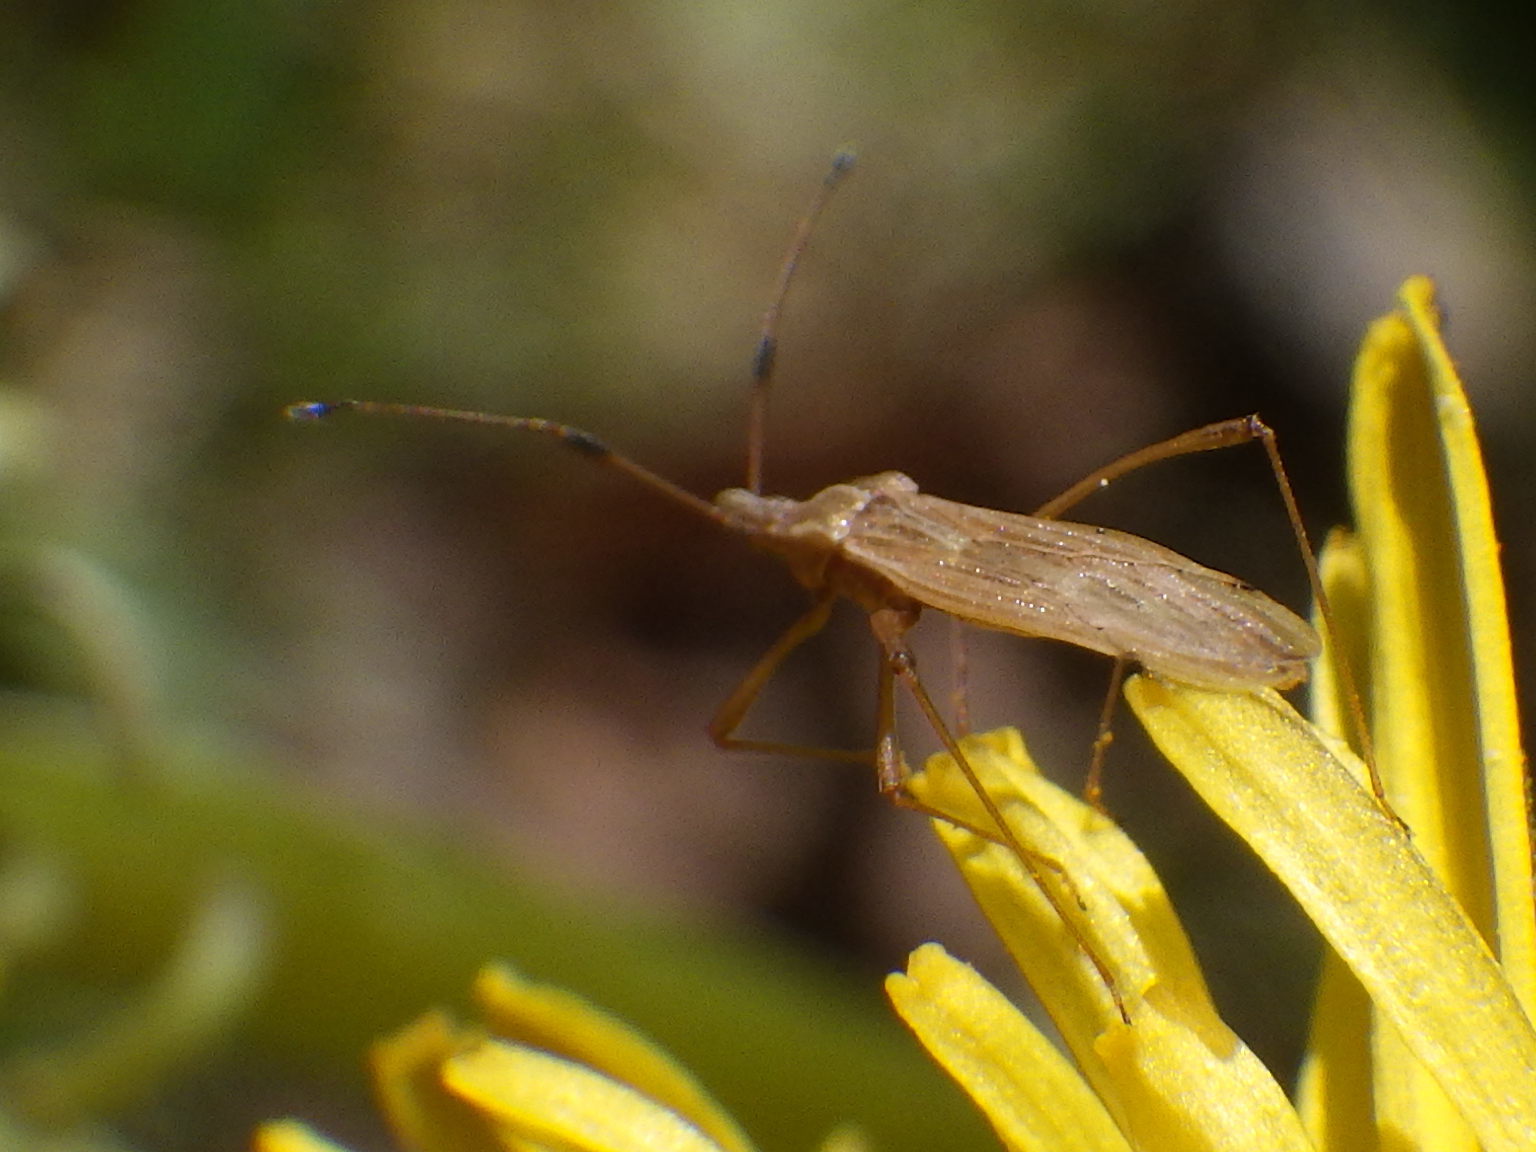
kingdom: Animalia
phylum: Arthropoda
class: Insecta
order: Hemiptera
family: Berytidae
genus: Berytinus
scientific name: Berytinus minor
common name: Stilt bug
